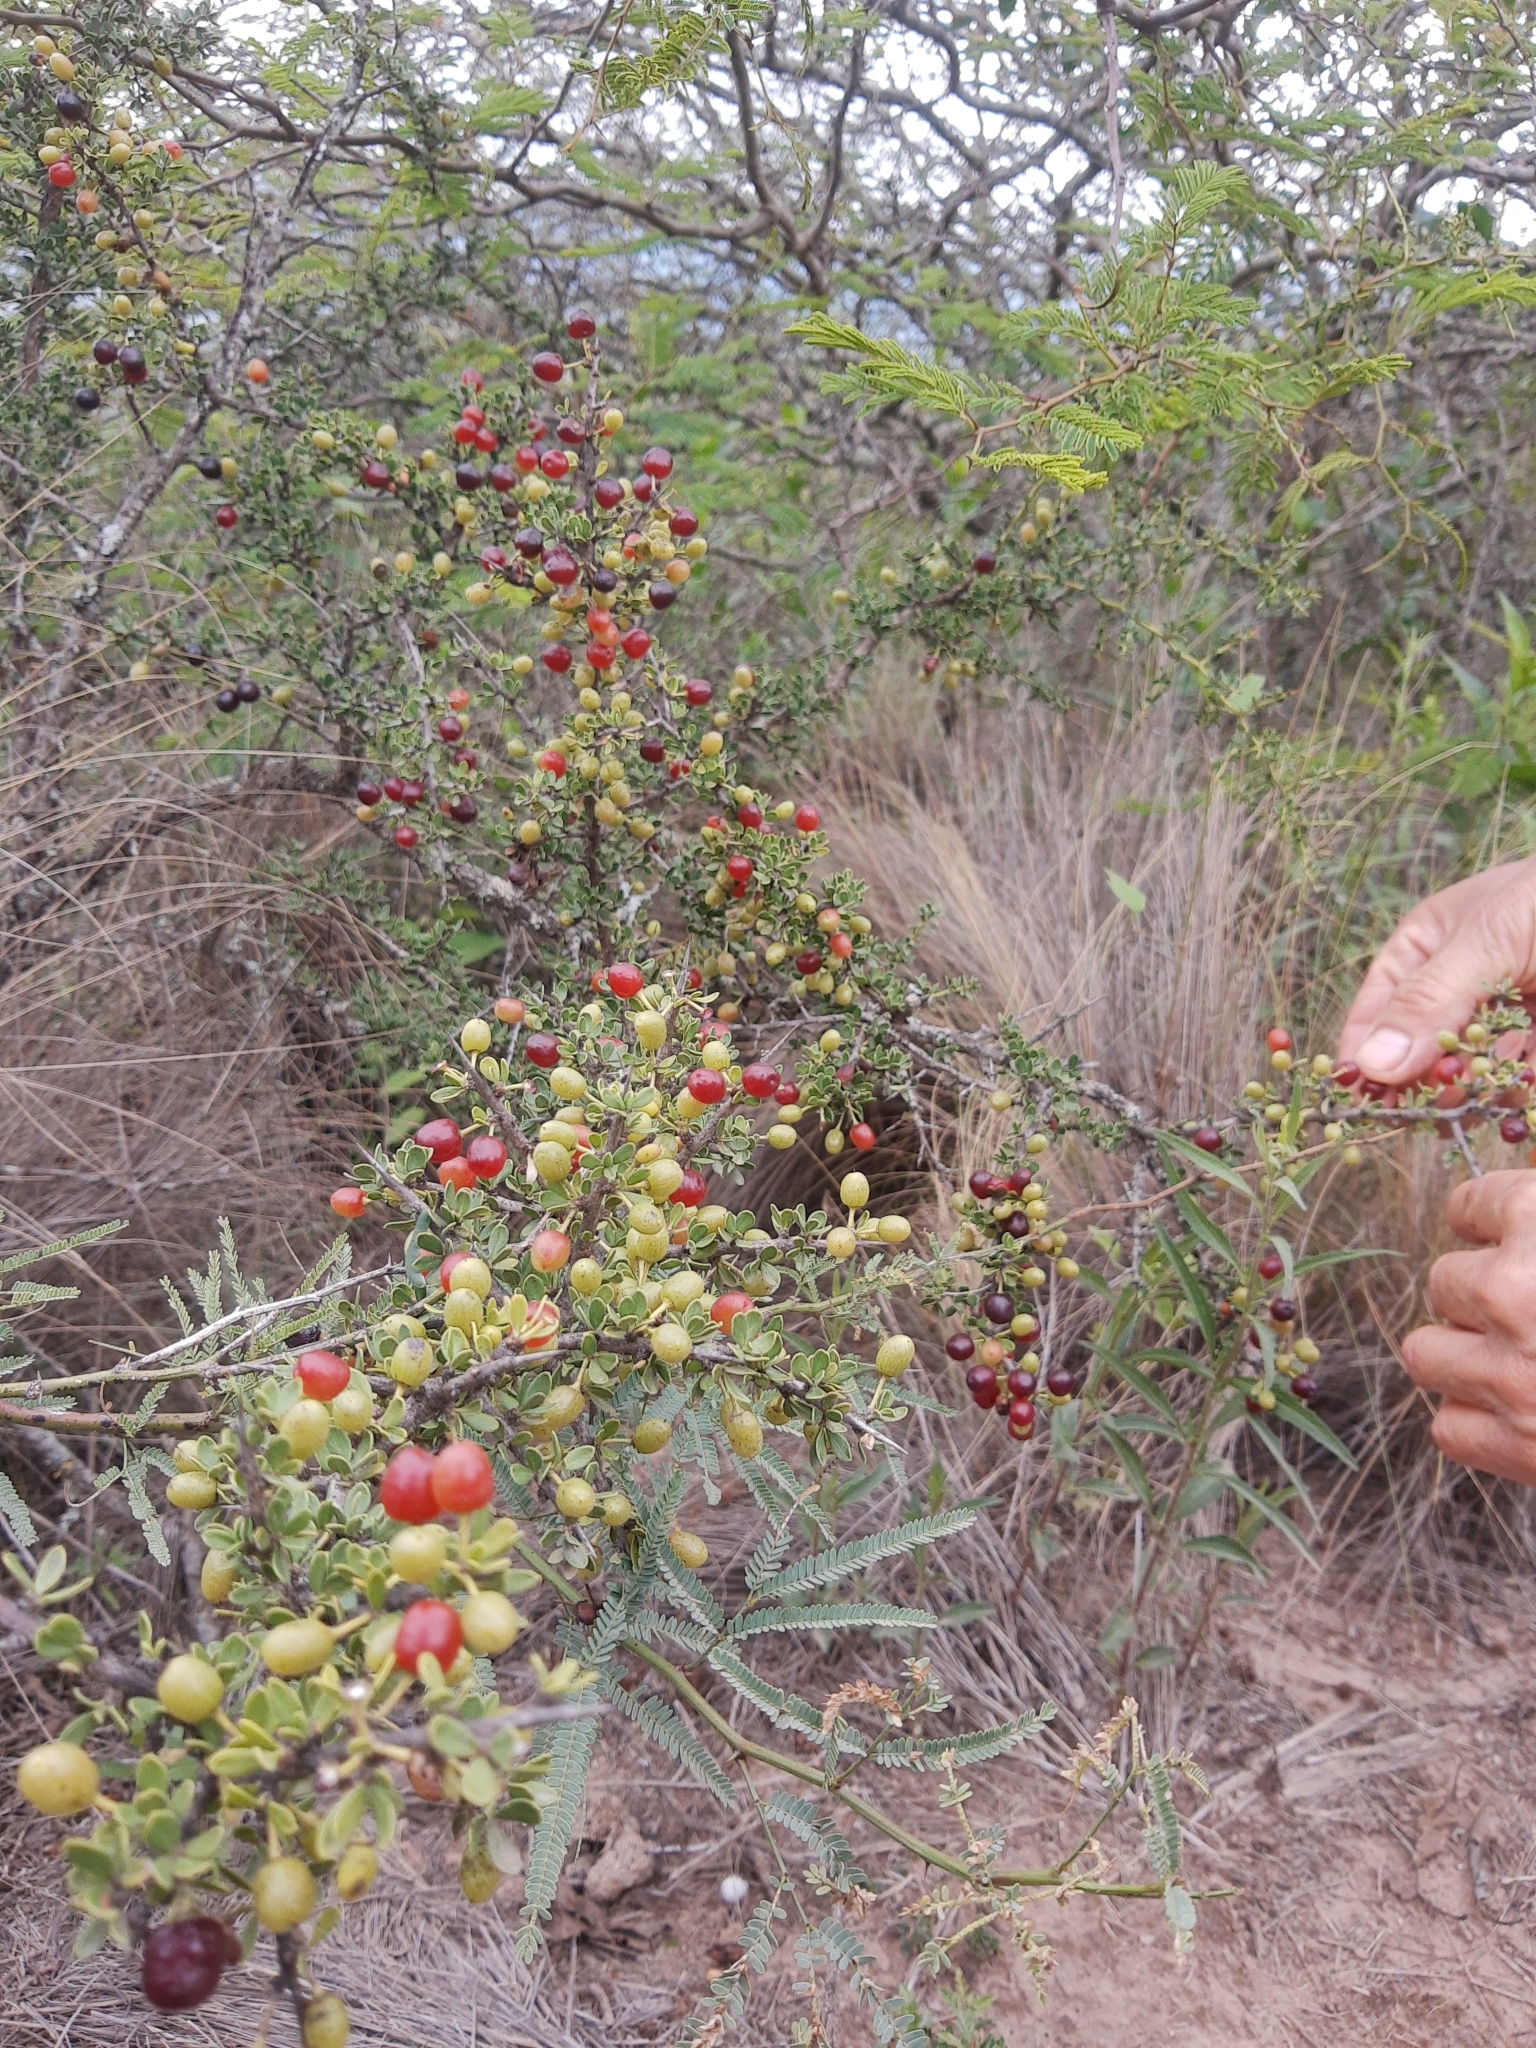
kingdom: Plantae
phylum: Tracheophyta
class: Magnoliopsida
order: Rosales
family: Rhamnaceae
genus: Condalia
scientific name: Condalia microphylla
